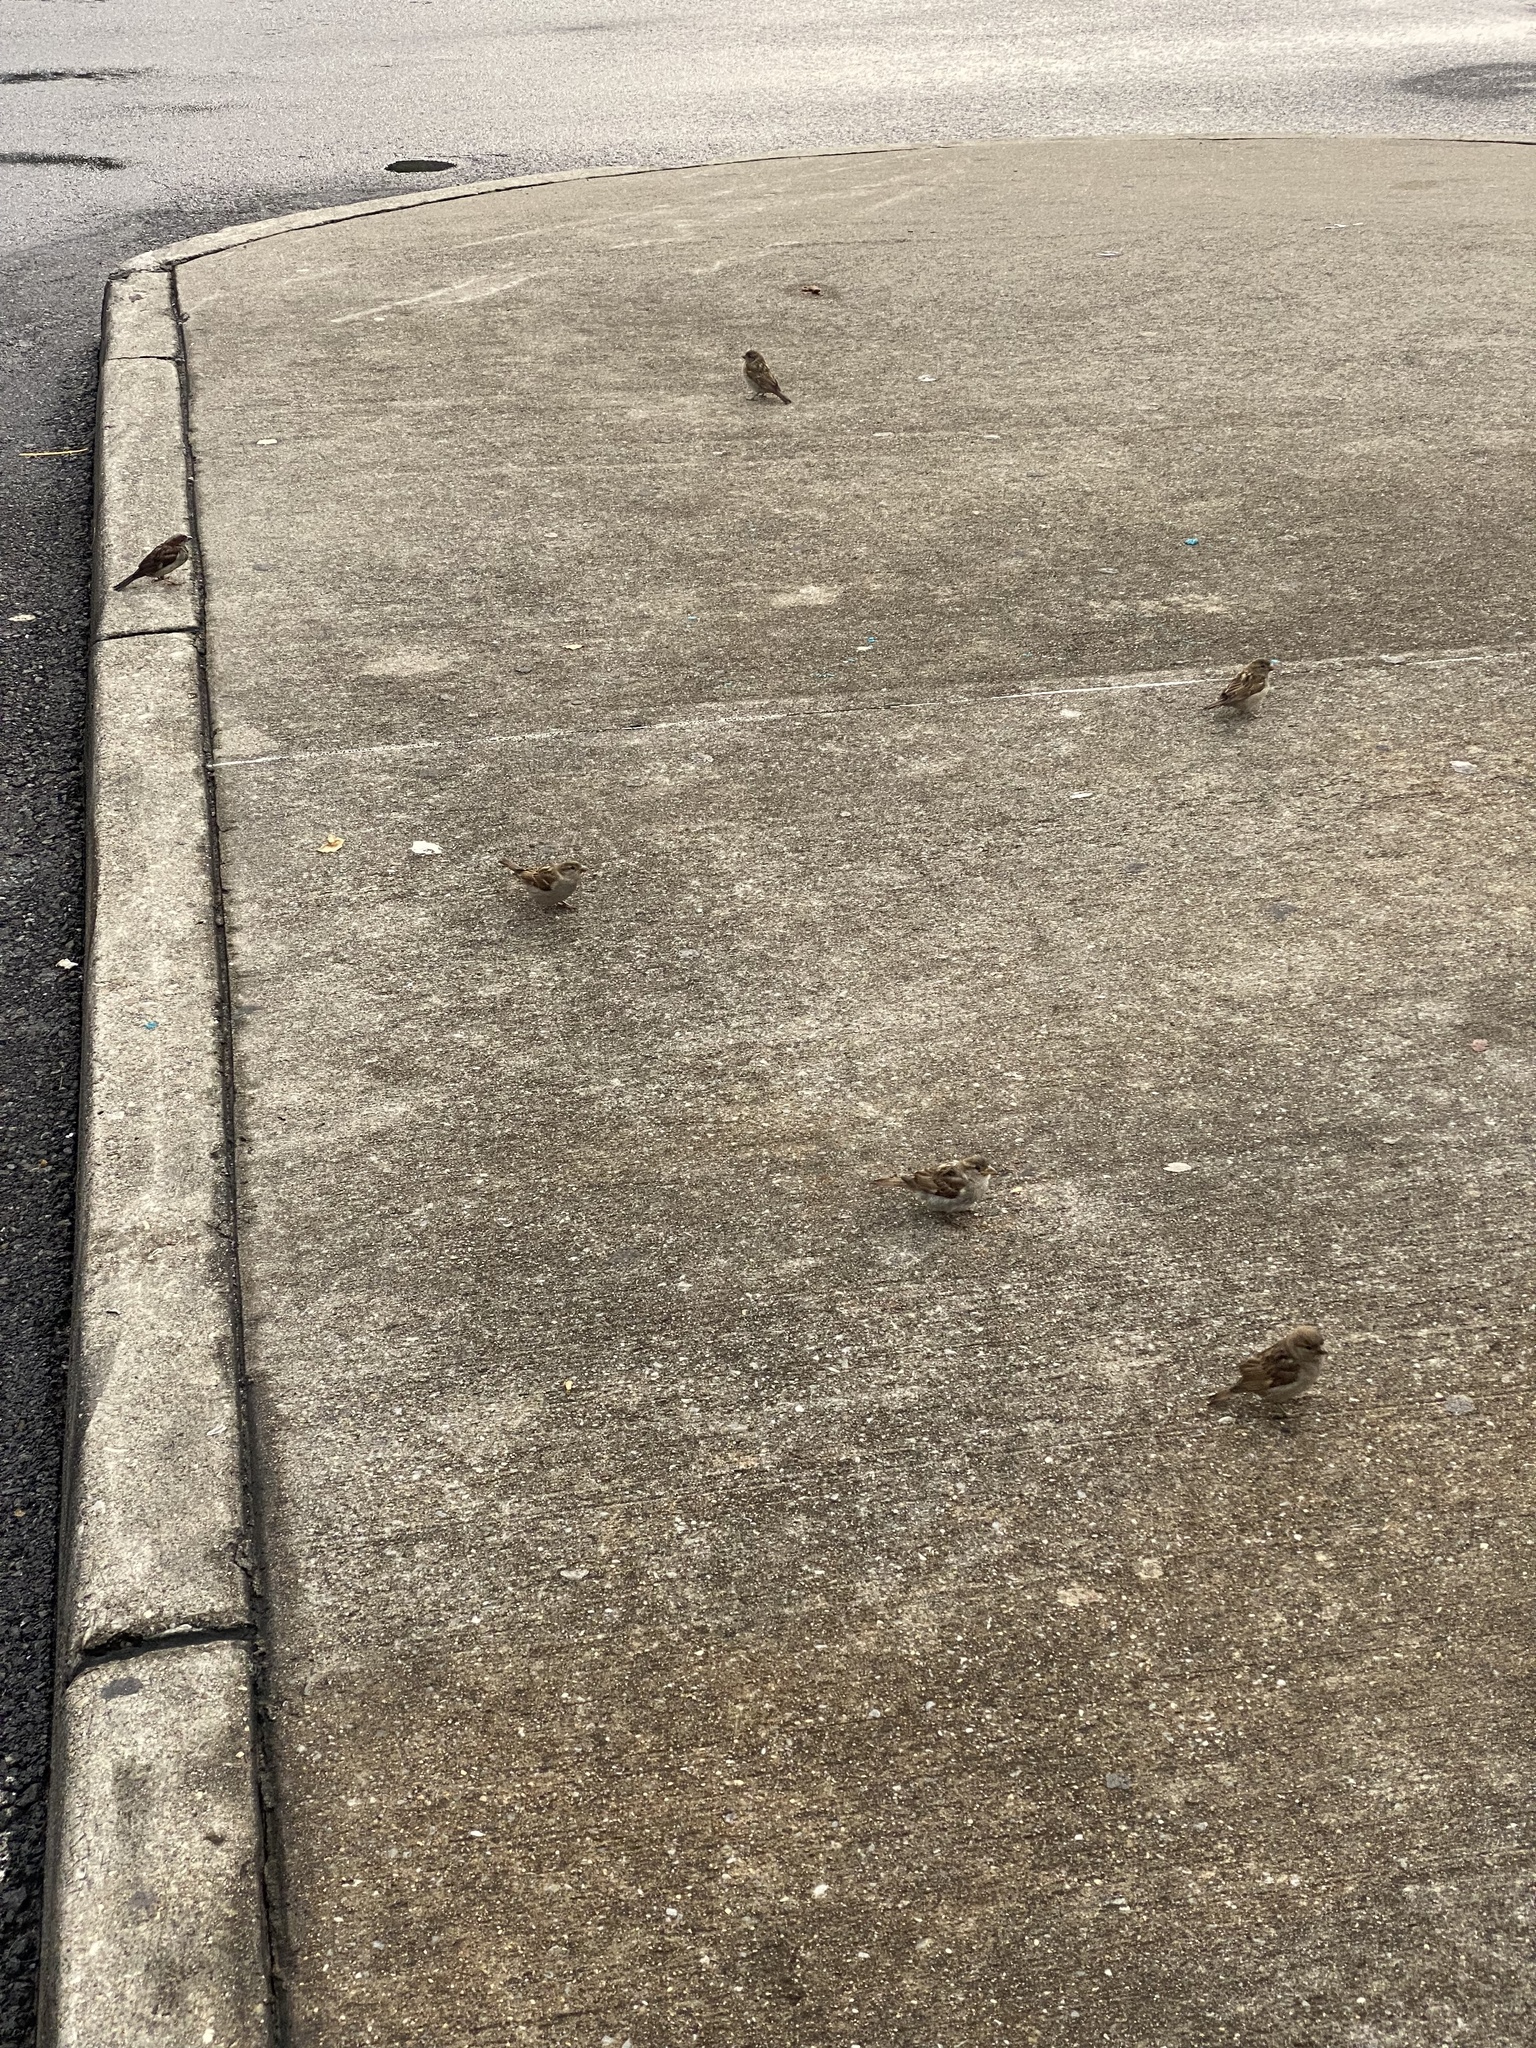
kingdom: Animalia
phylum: Chordata
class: Aves
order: Passeriformes
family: Passeridae
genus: Passer
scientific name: Passer domesticus
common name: House sparrow
